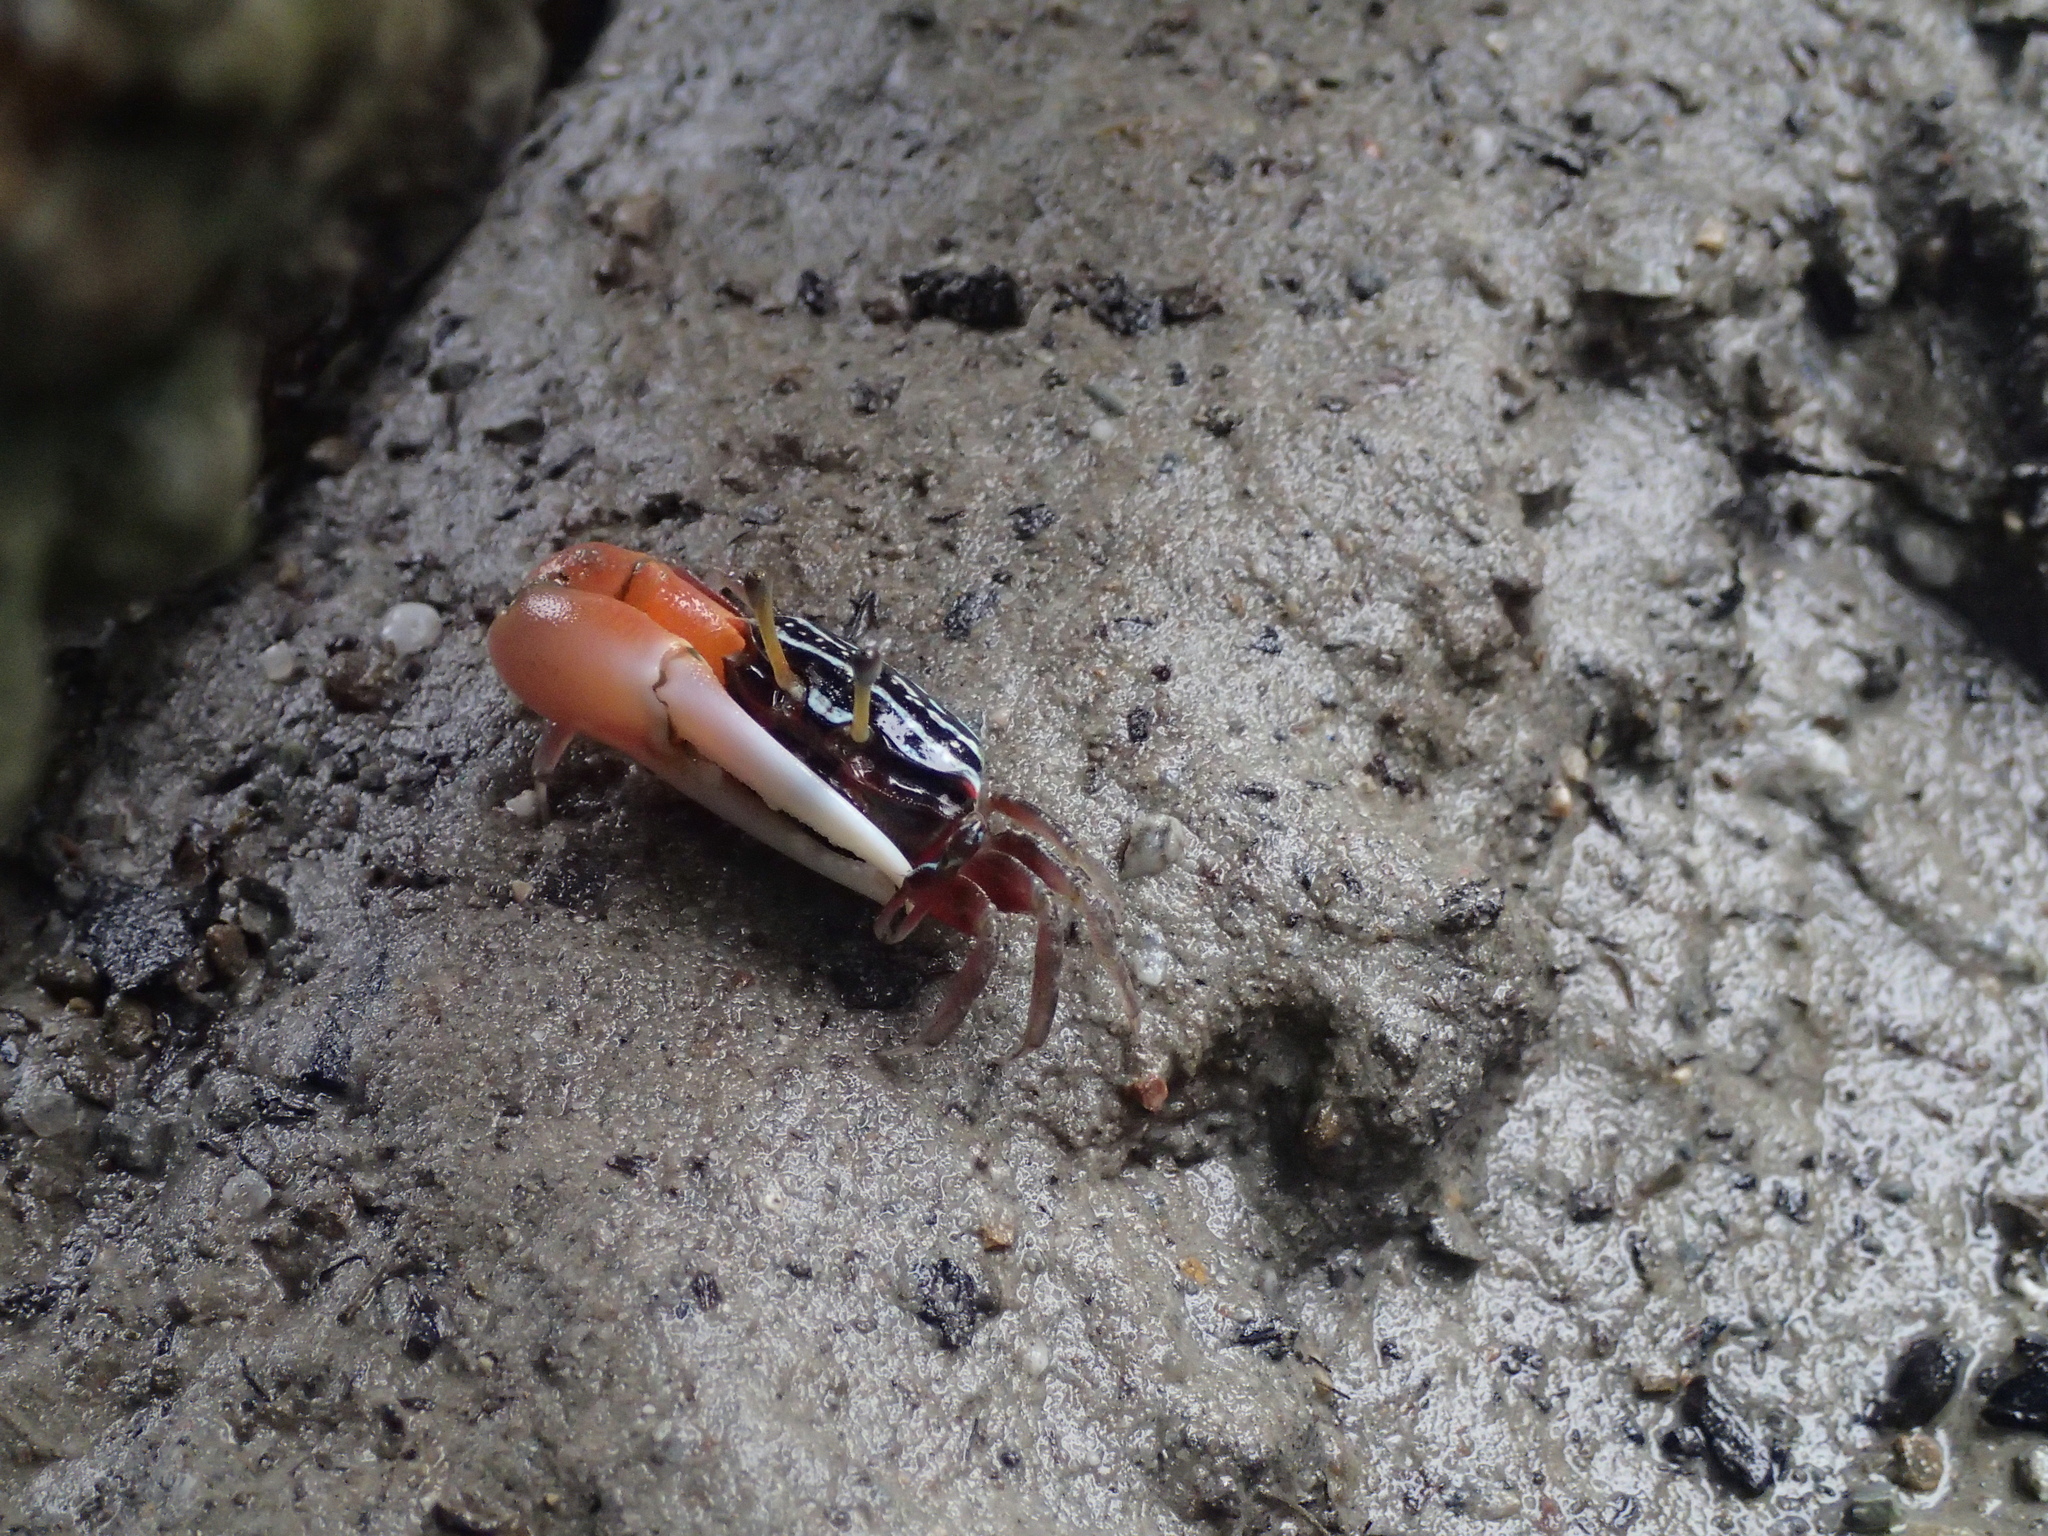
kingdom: Animalia
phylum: Arthropoda
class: Malacostraca
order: Decapoda
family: Ocypodidae
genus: Austruca
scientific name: Austruca annulipes
